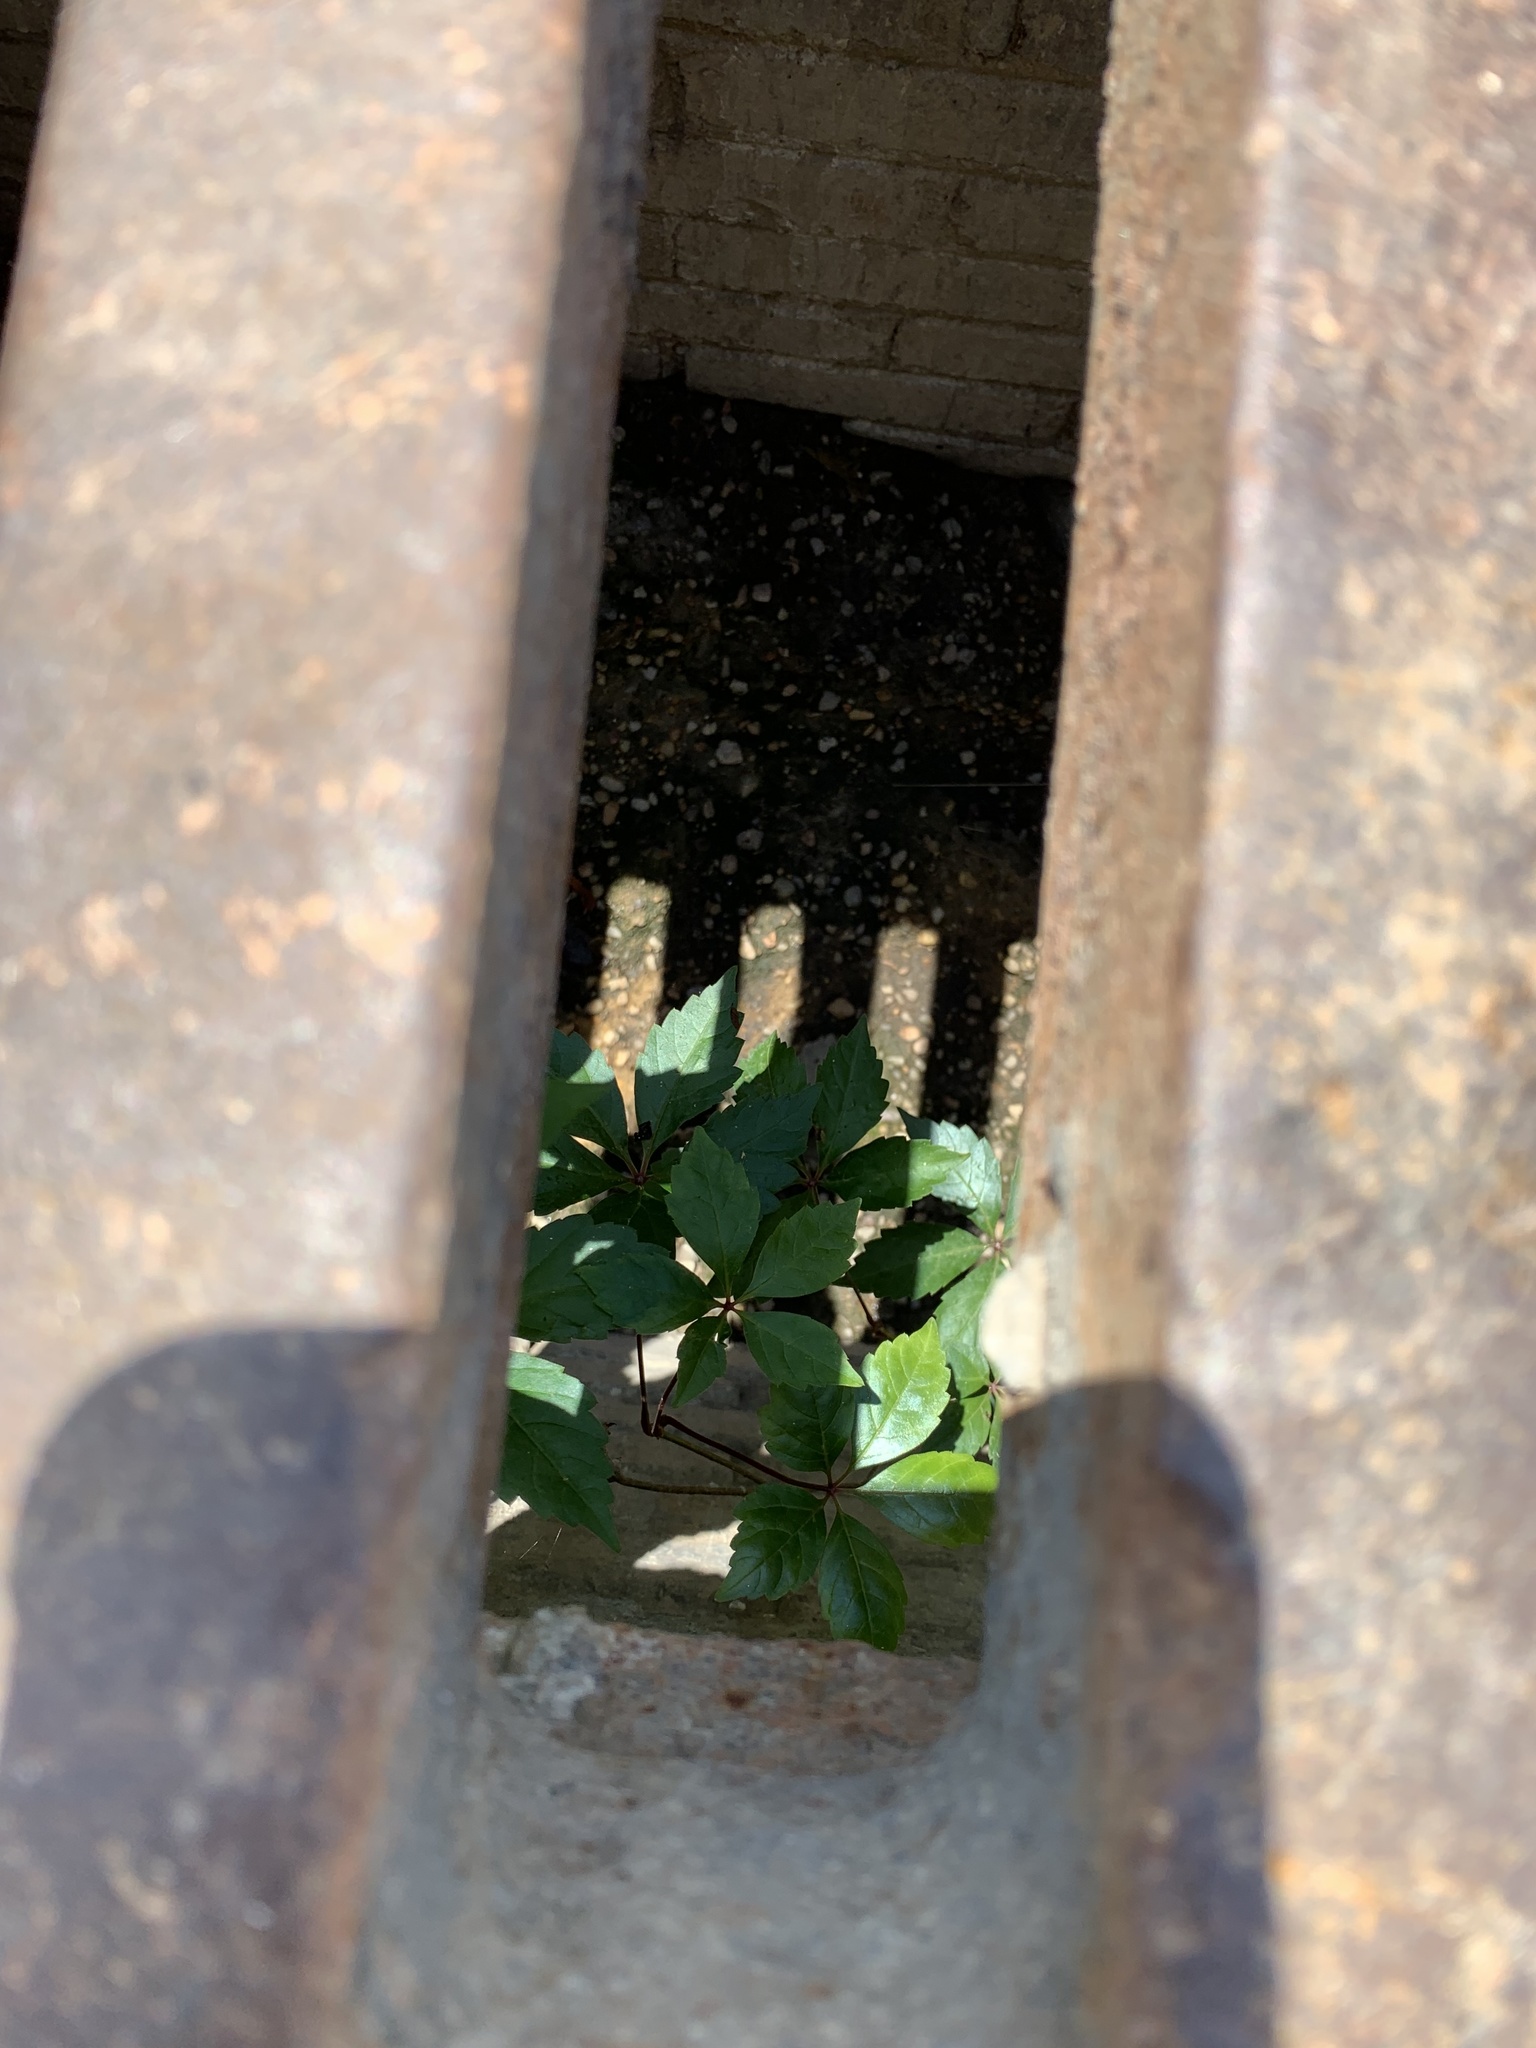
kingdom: Plantae
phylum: Tracheophyta
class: Magnoliopsida
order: Vitales
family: Vitaceae
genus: Parthenocissus
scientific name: Parthenocissus quinquefolia
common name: Virginia-creeper
